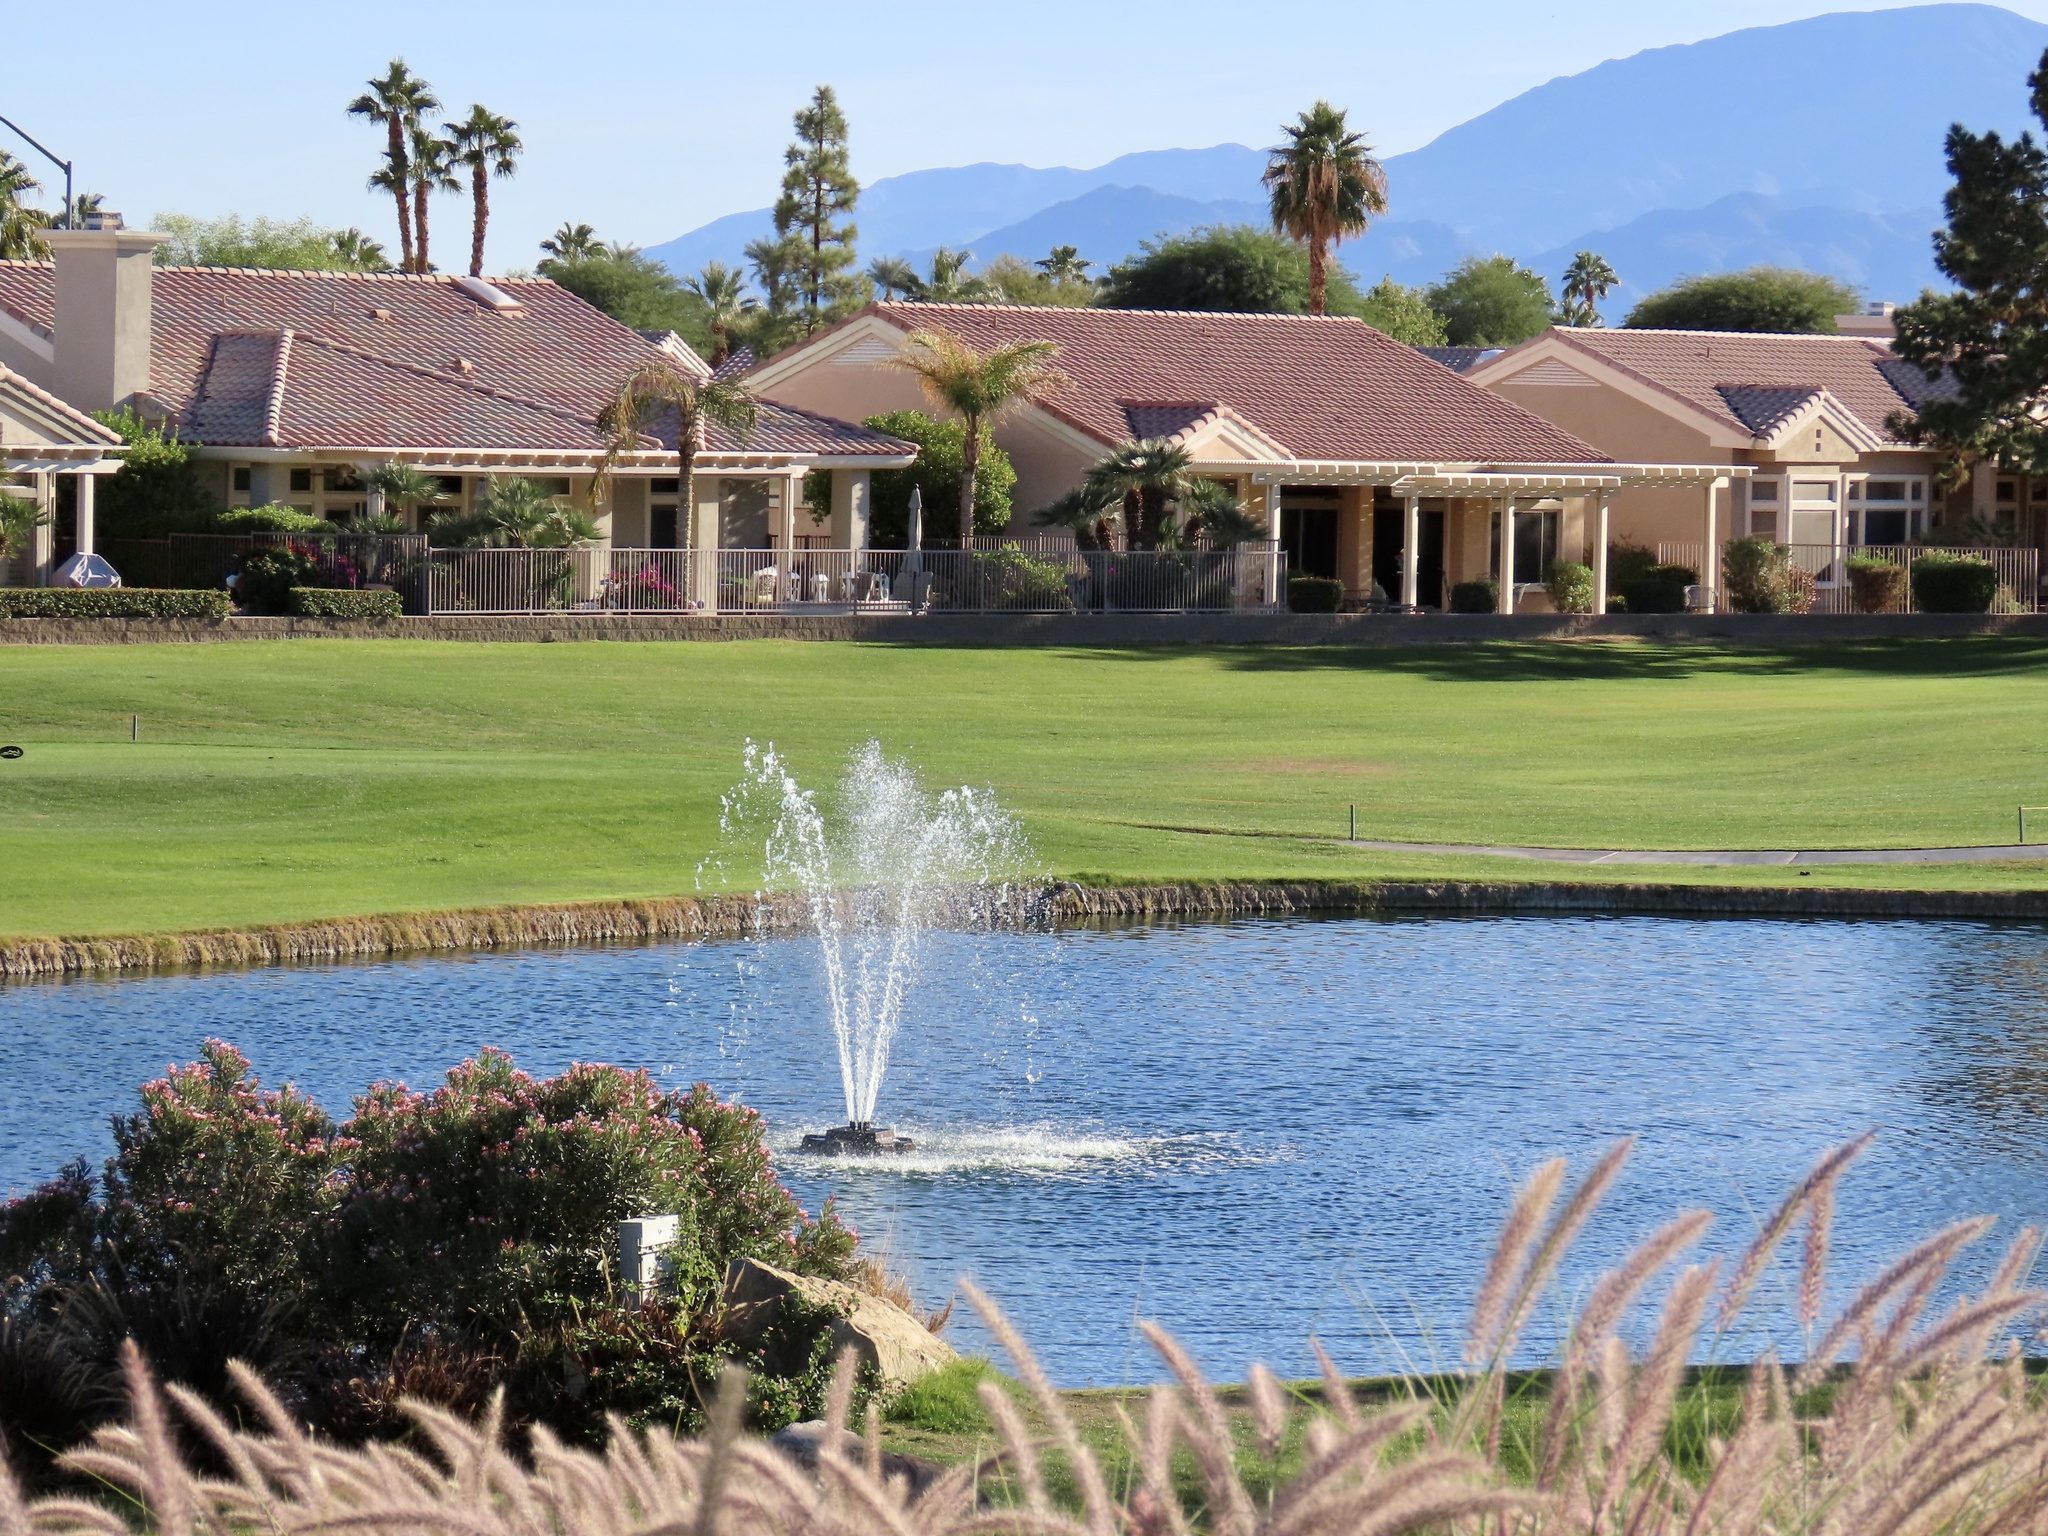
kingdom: Animalia
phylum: Chordata
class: Aves
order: Anseriformes
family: Anatidae
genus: Mareca
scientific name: Mareca americana
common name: American wigeon
